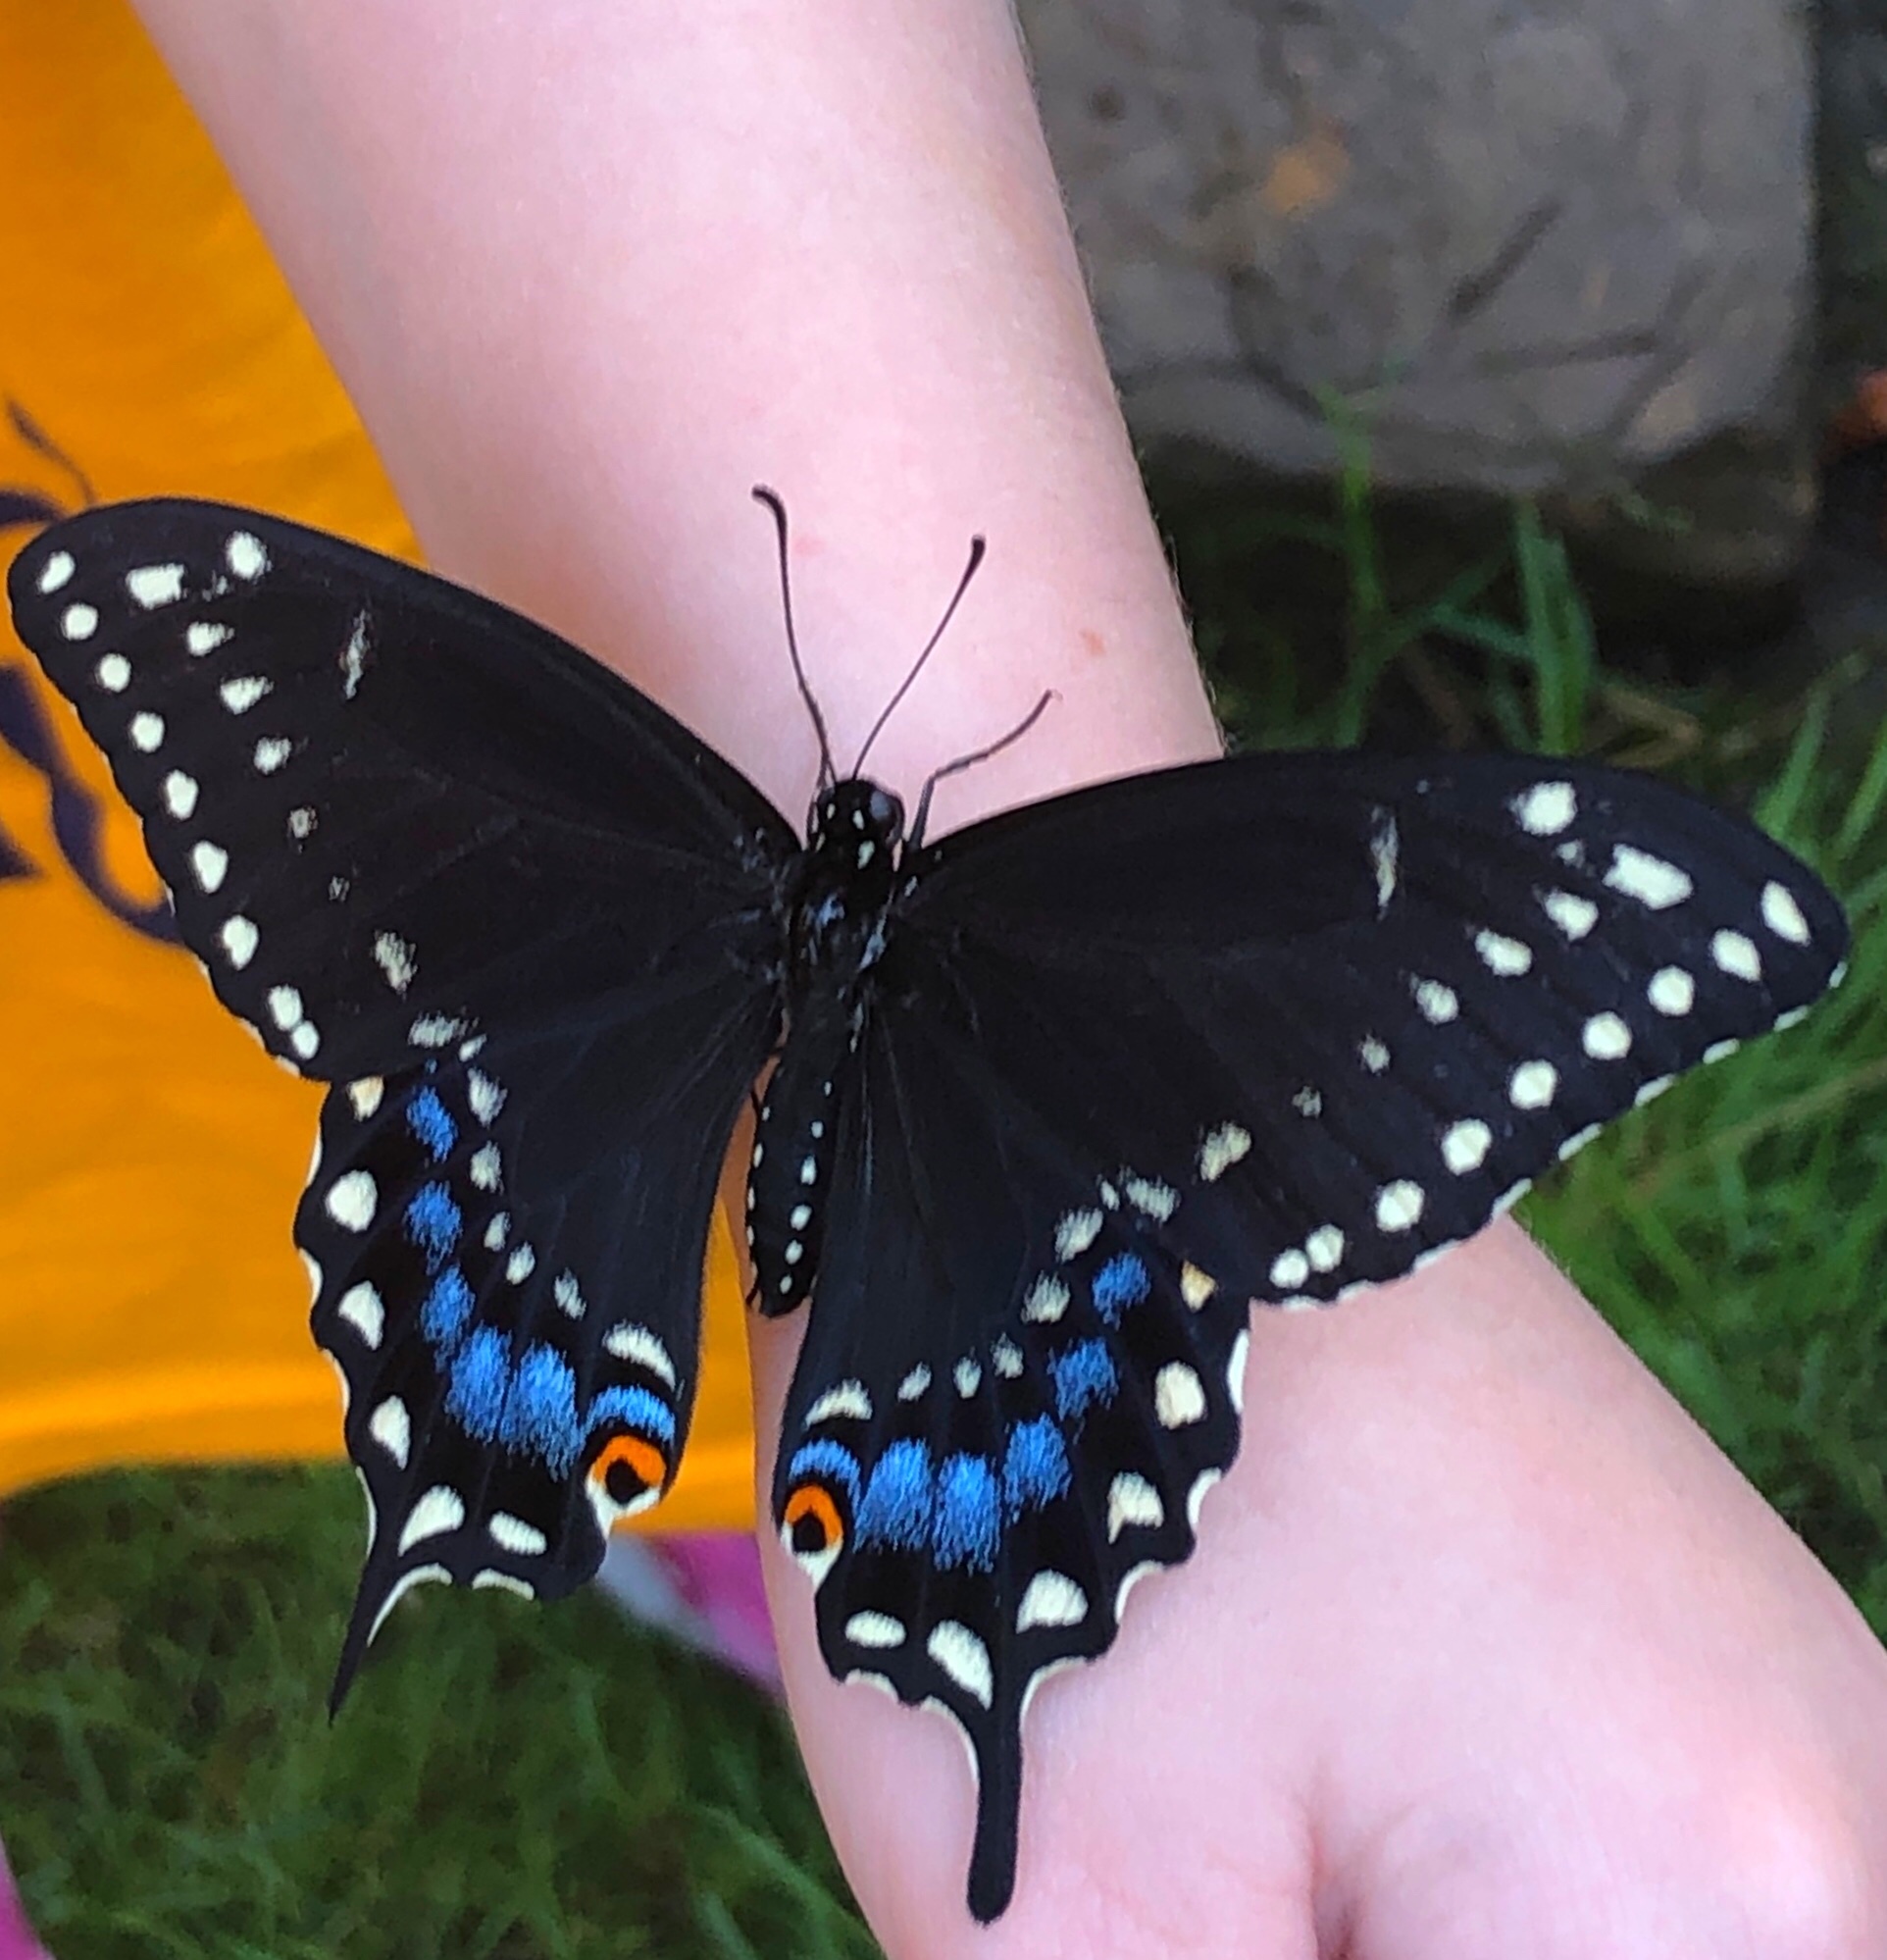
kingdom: Animalia
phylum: Arthropoda
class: Insecta
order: Lepidoptera
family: Papilionidae
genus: Papilio
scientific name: Papilio polyxenes
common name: Black swallowtail
